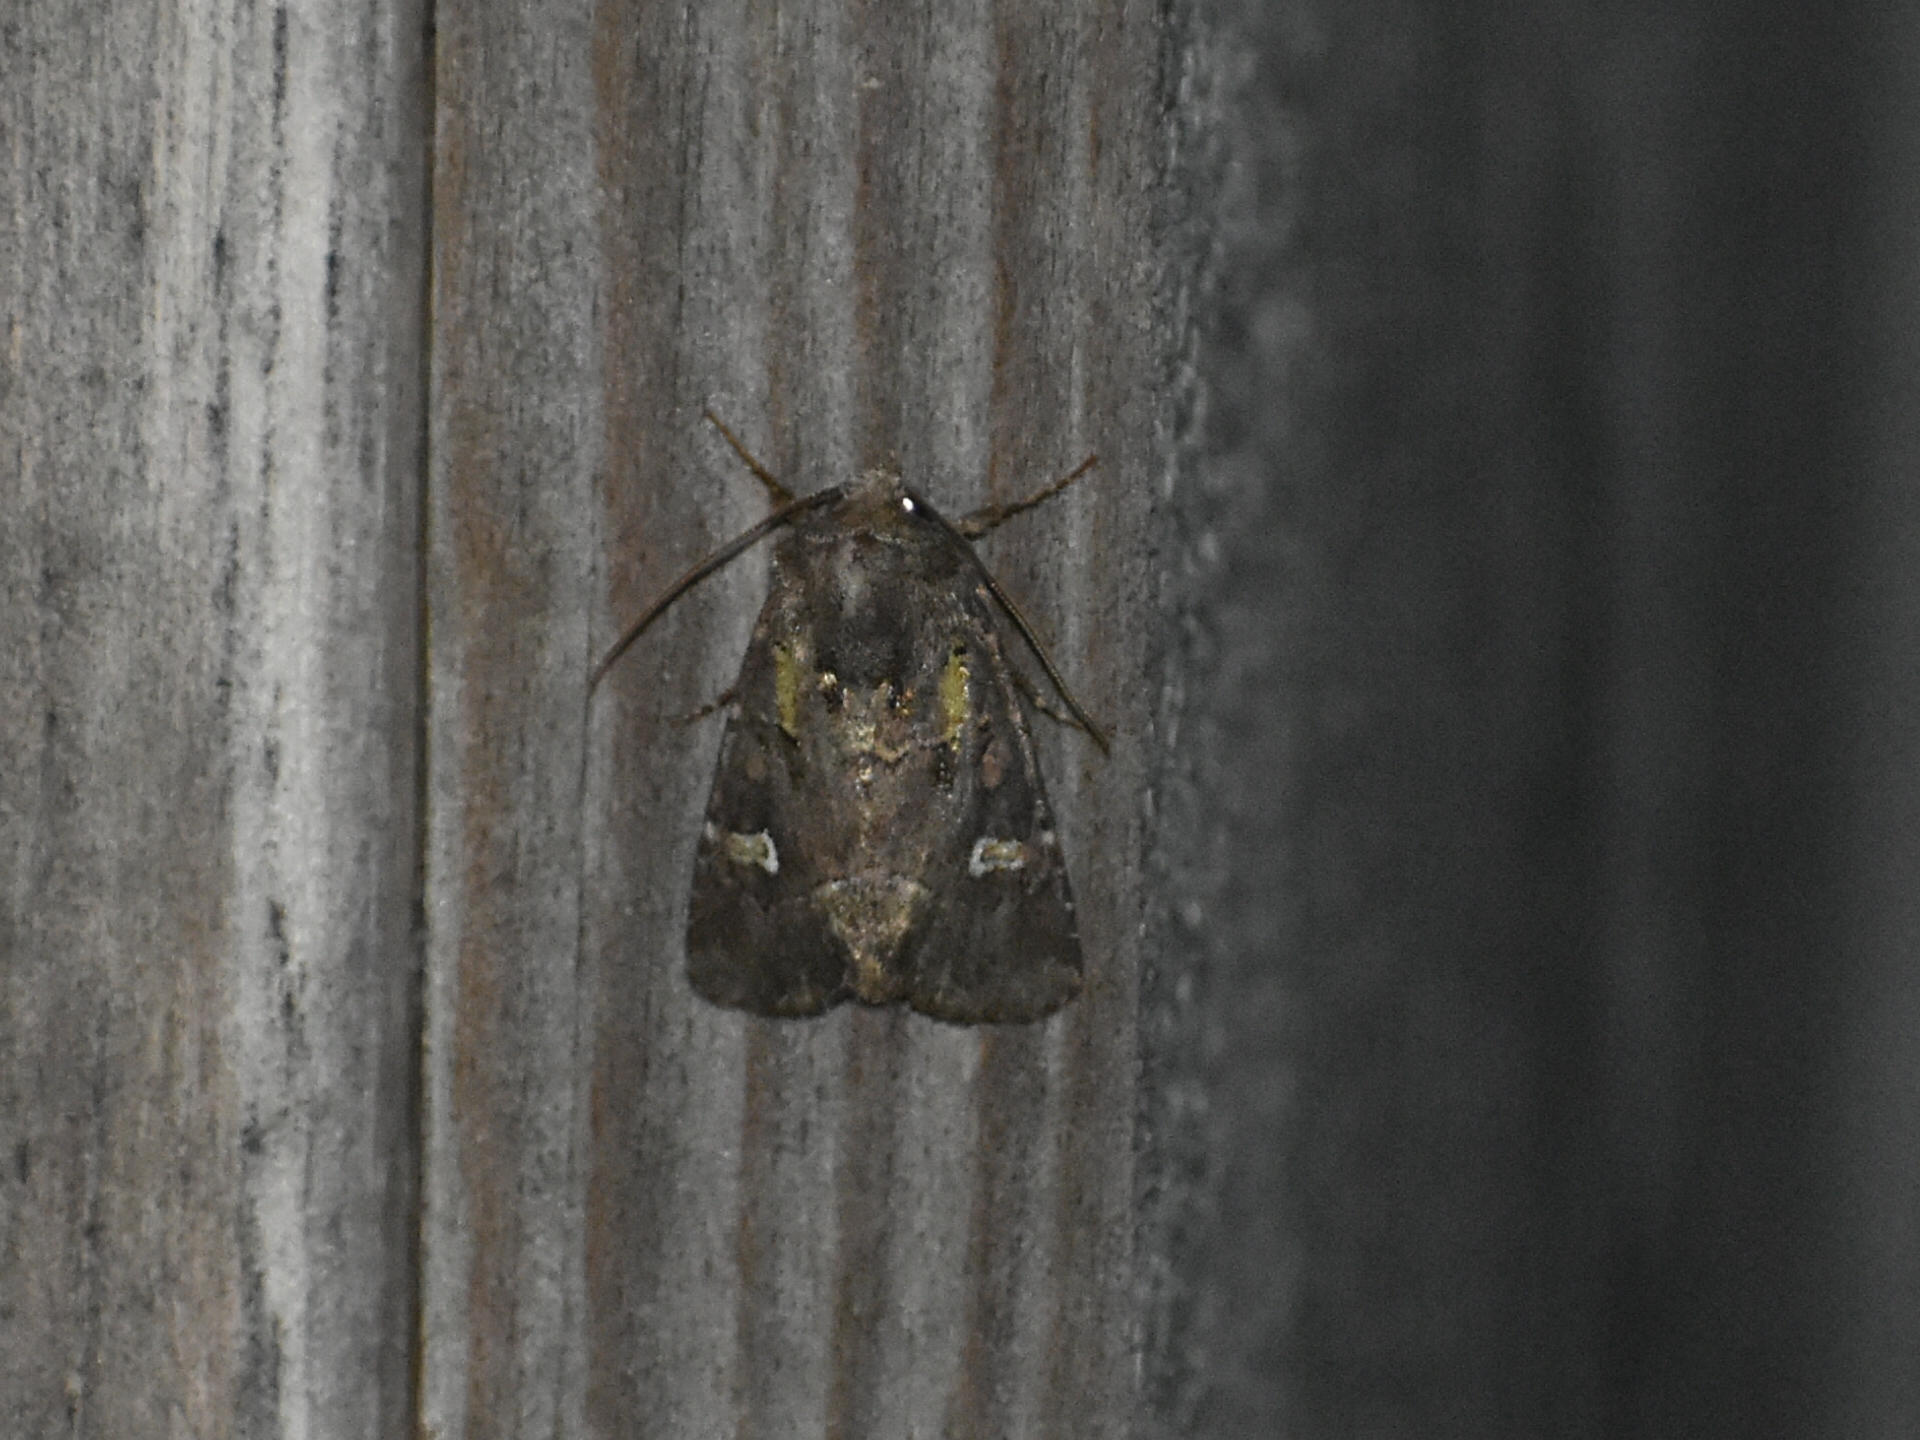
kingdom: Animalia
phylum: Arthropoda
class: Insecta
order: Lepidoptera
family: Noctuidae
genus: Lacinipolia
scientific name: Lacinipolia renigera
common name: Kidney-spotted minor
